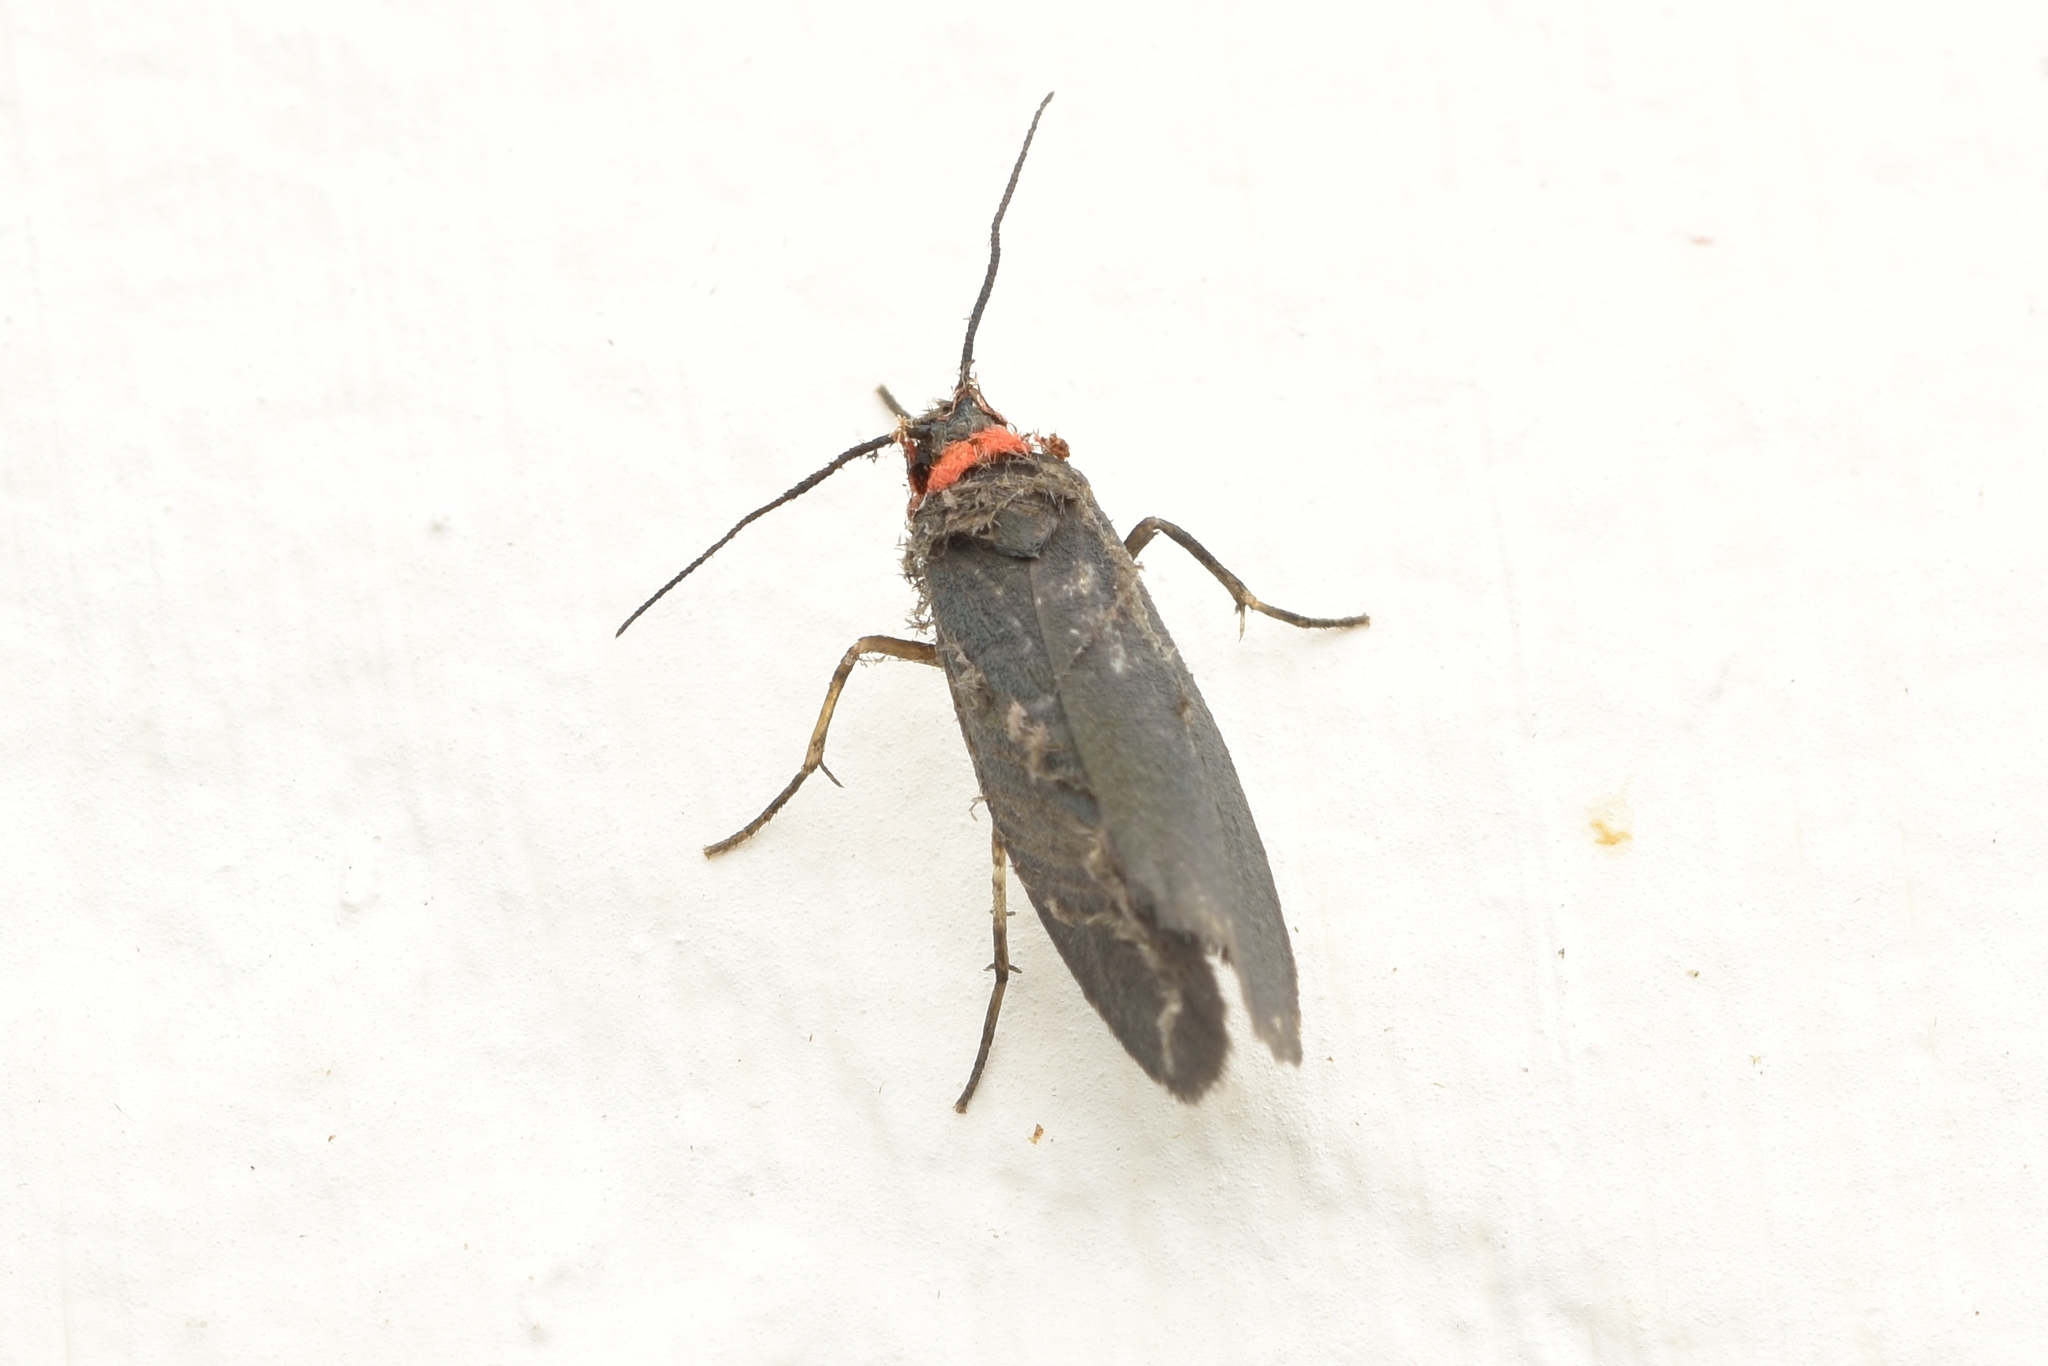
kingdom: Animalia
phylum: Arthropoda
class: Insecta
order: Lepidoptera
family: Erebidae
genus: Palaeozana
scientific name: Palaeozana mida
